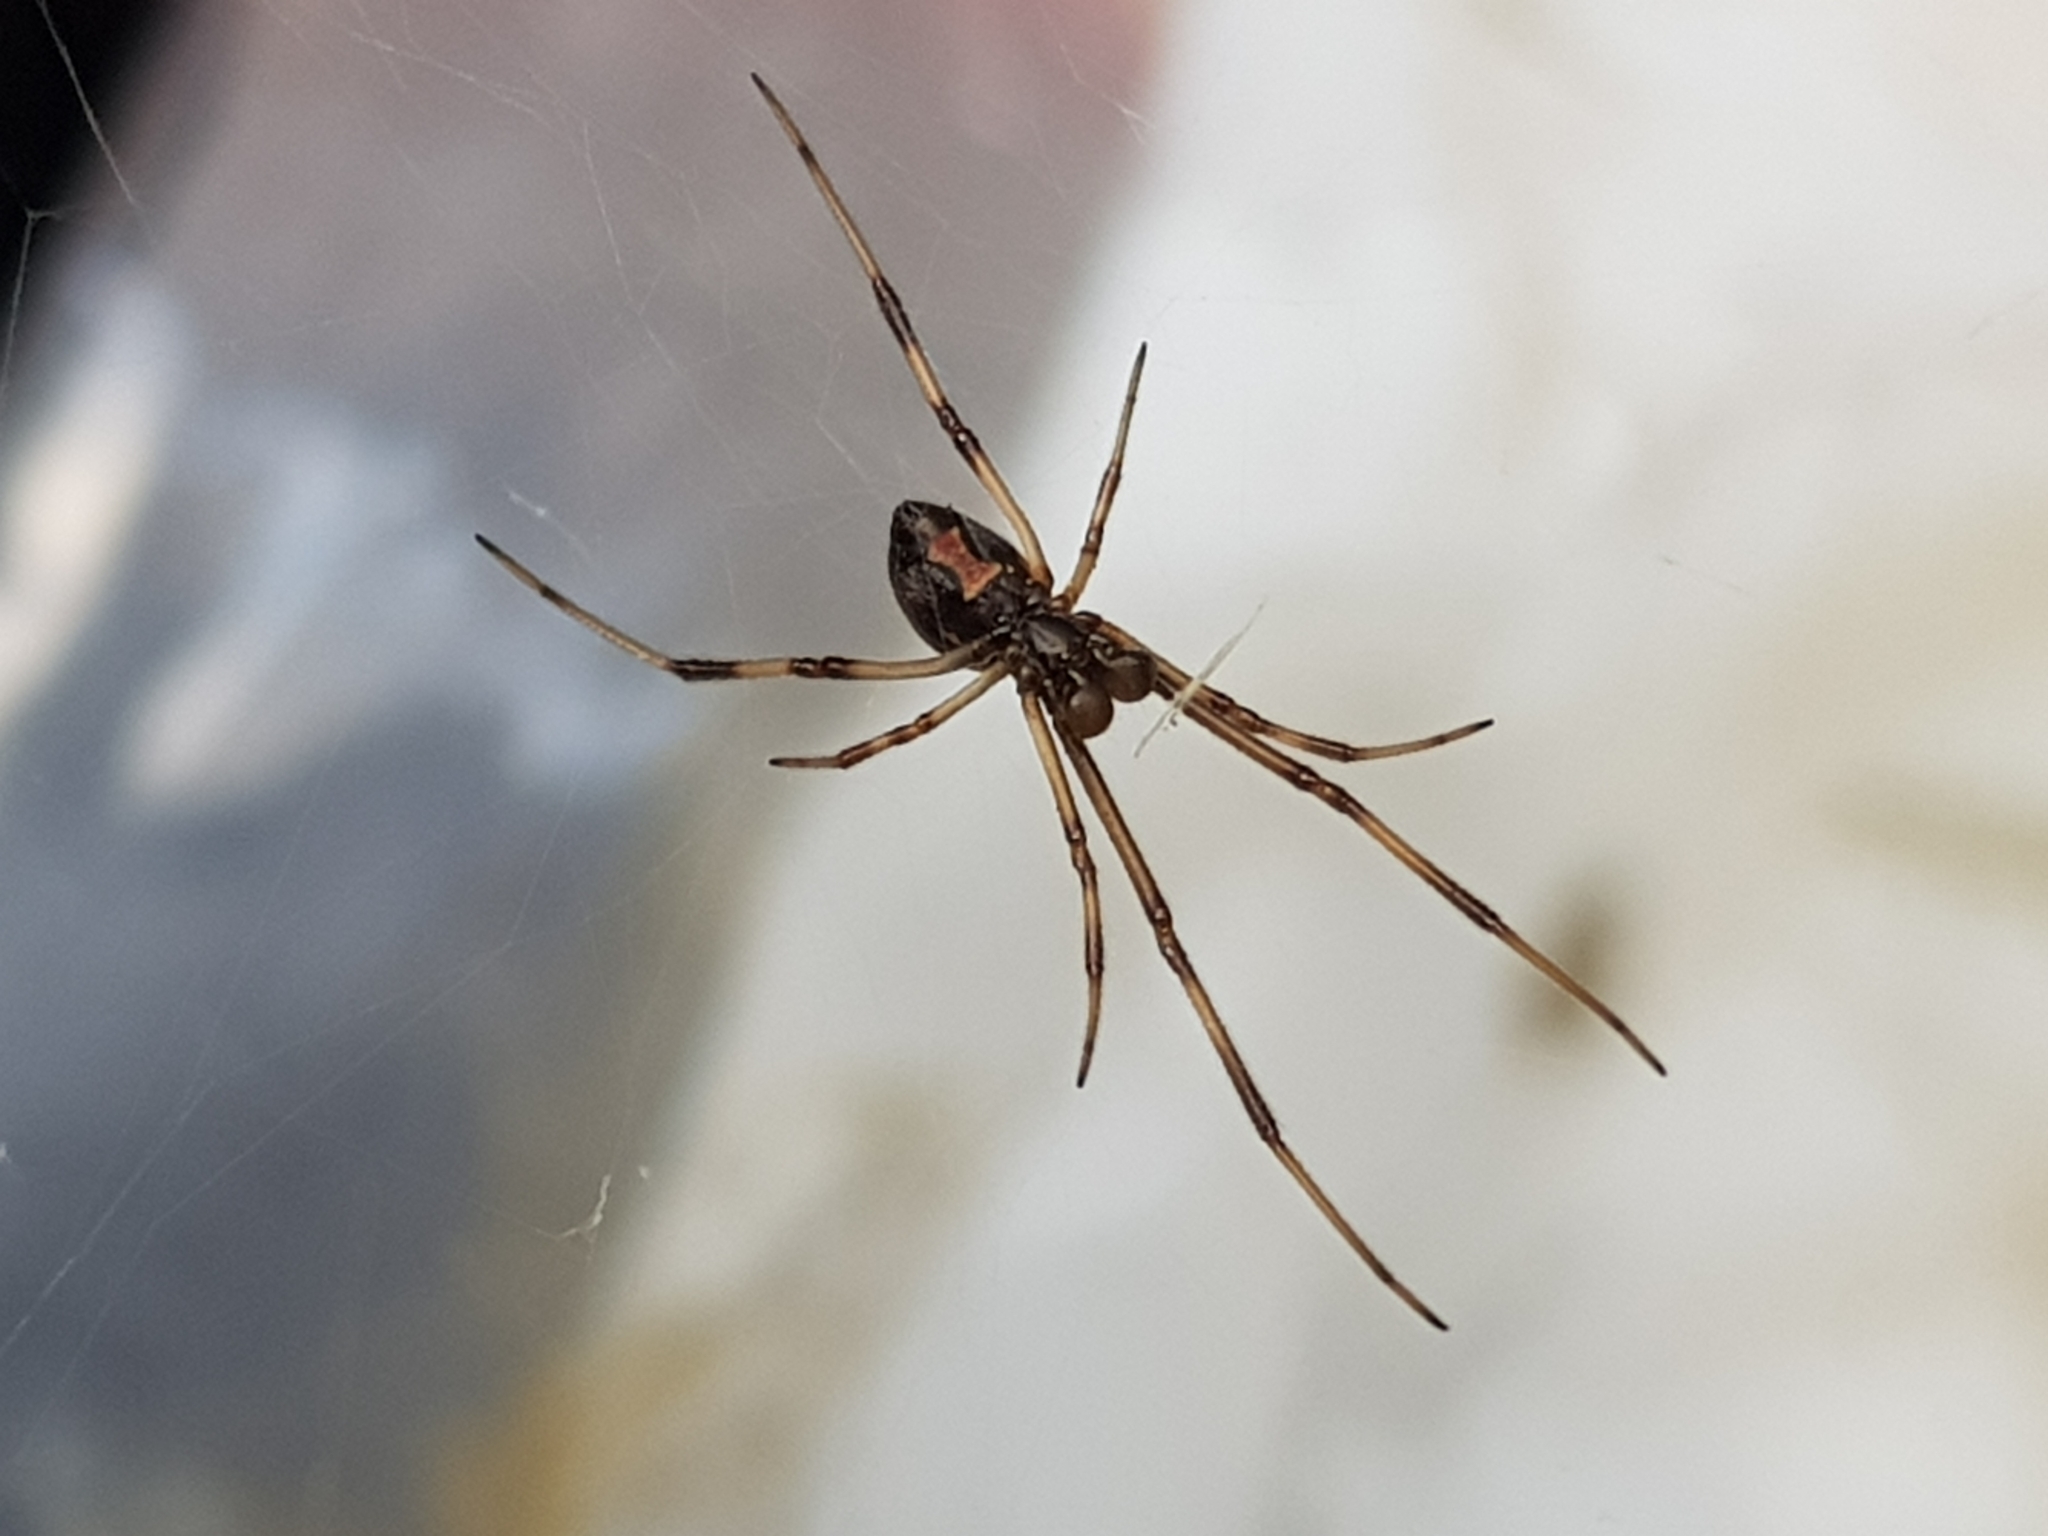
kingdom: Animalia
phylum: Arthropoda
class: Arachnida
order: Araneae
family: Theridiidae
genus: Latrodectus
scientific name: Latrodectus hasselti
